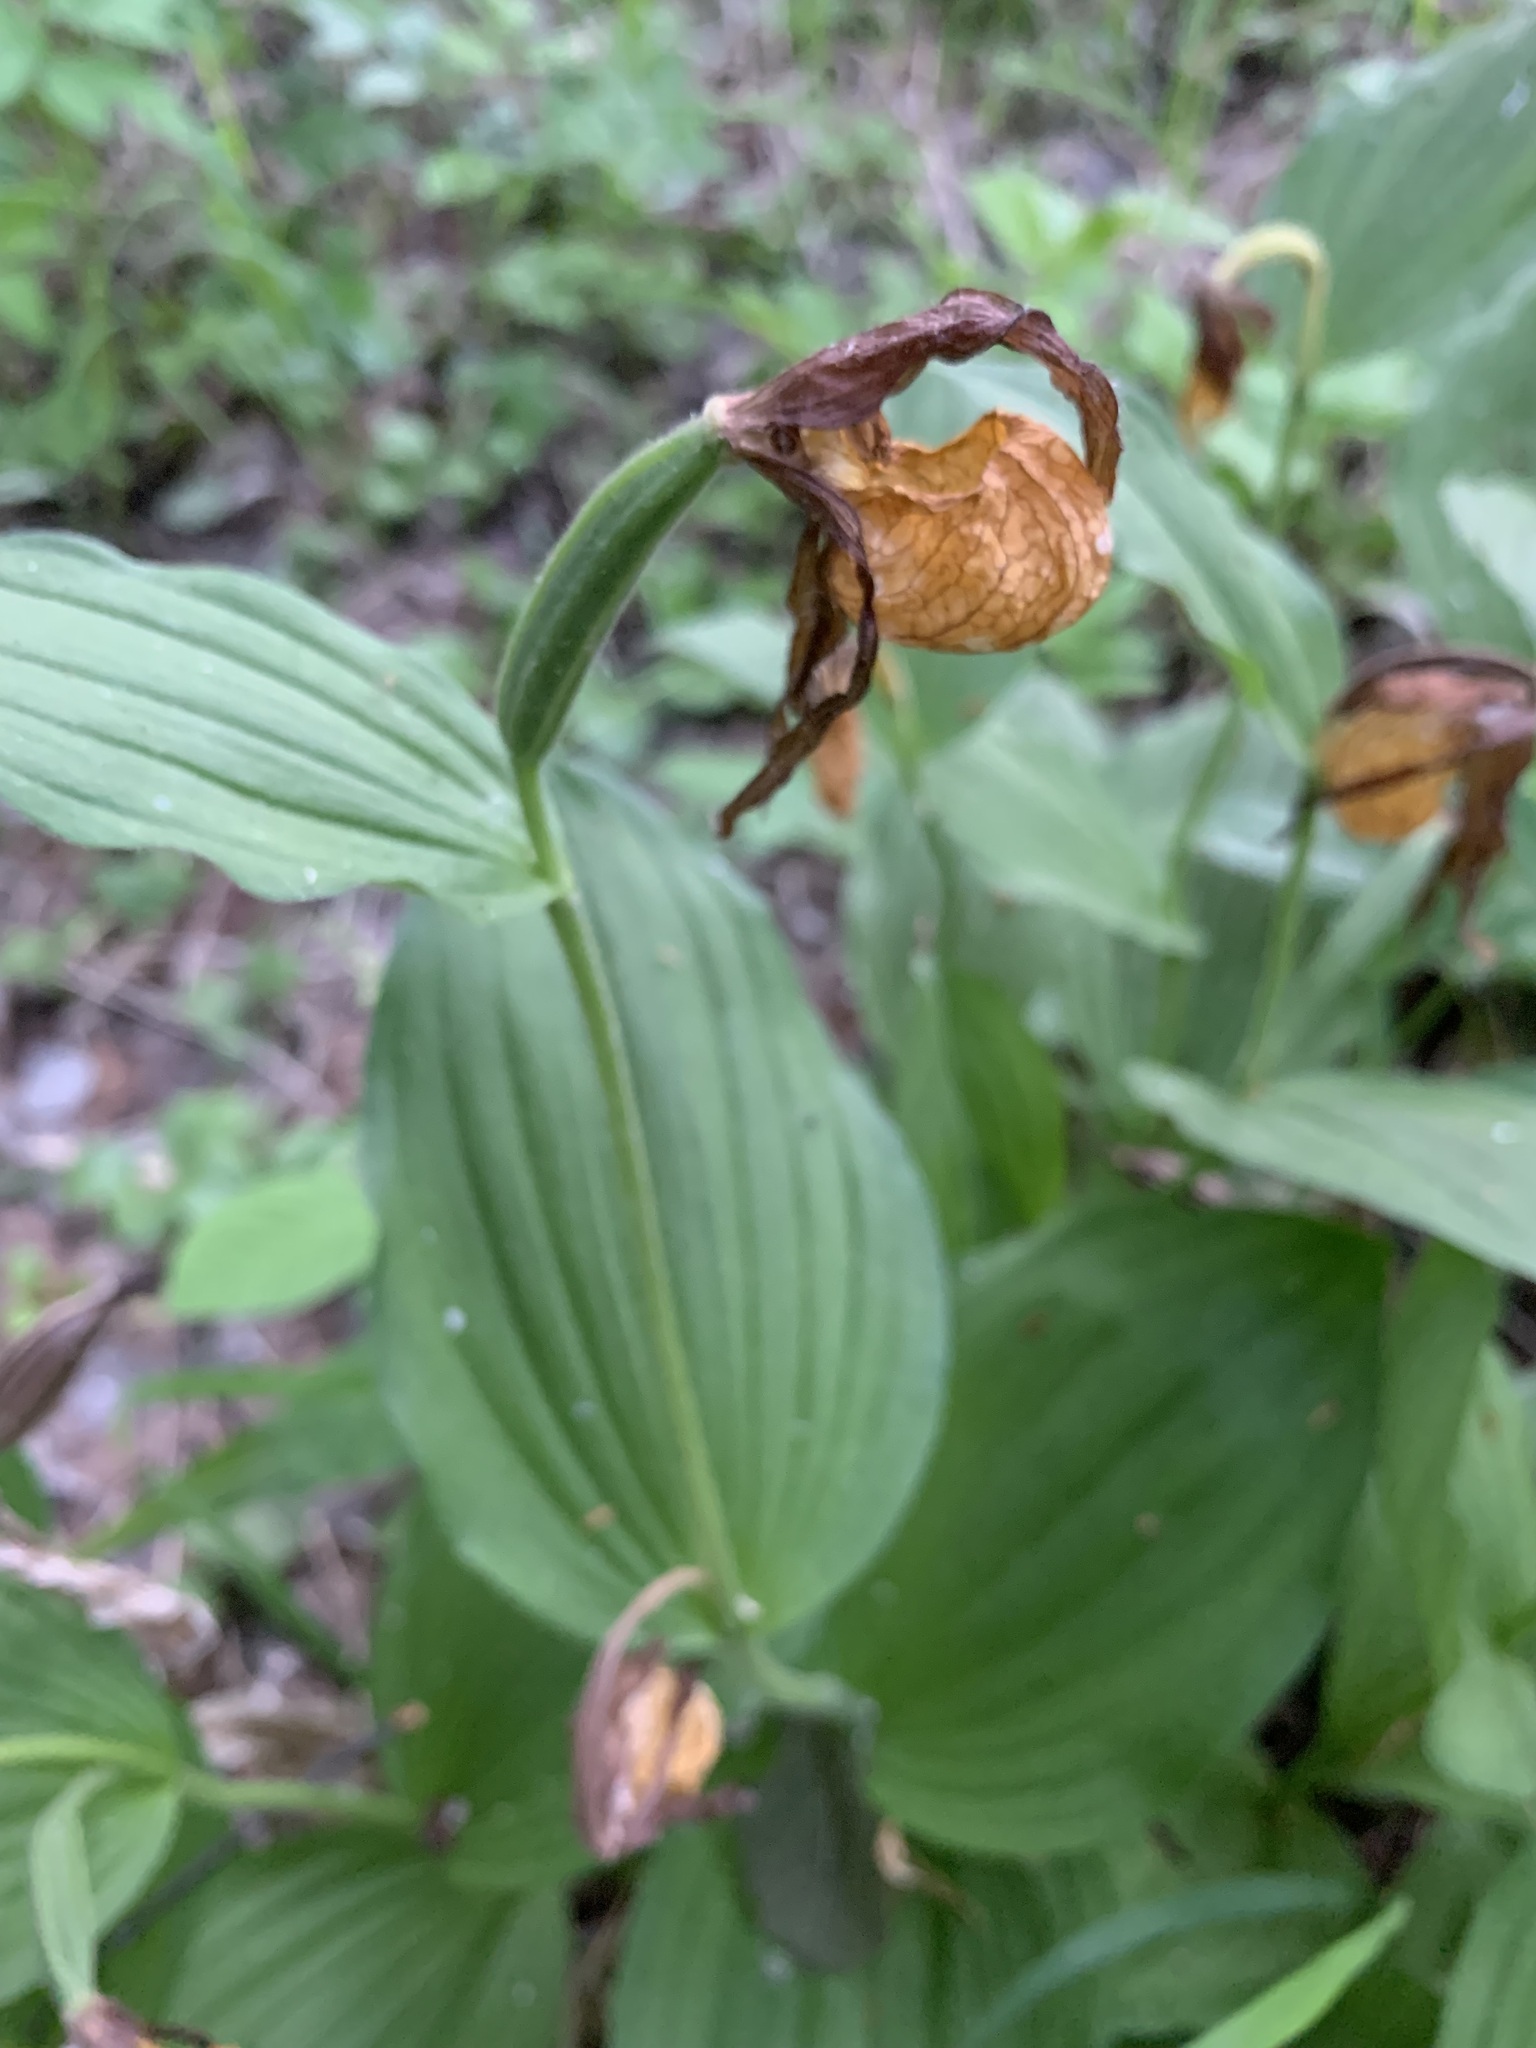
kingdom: Plantae
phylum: Tracheophyta
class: Liliopsida
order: Asparagales
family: Orchidaceae
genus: Cypripedium
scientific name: Cypripedium calceolus
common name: Lady's-slipper
